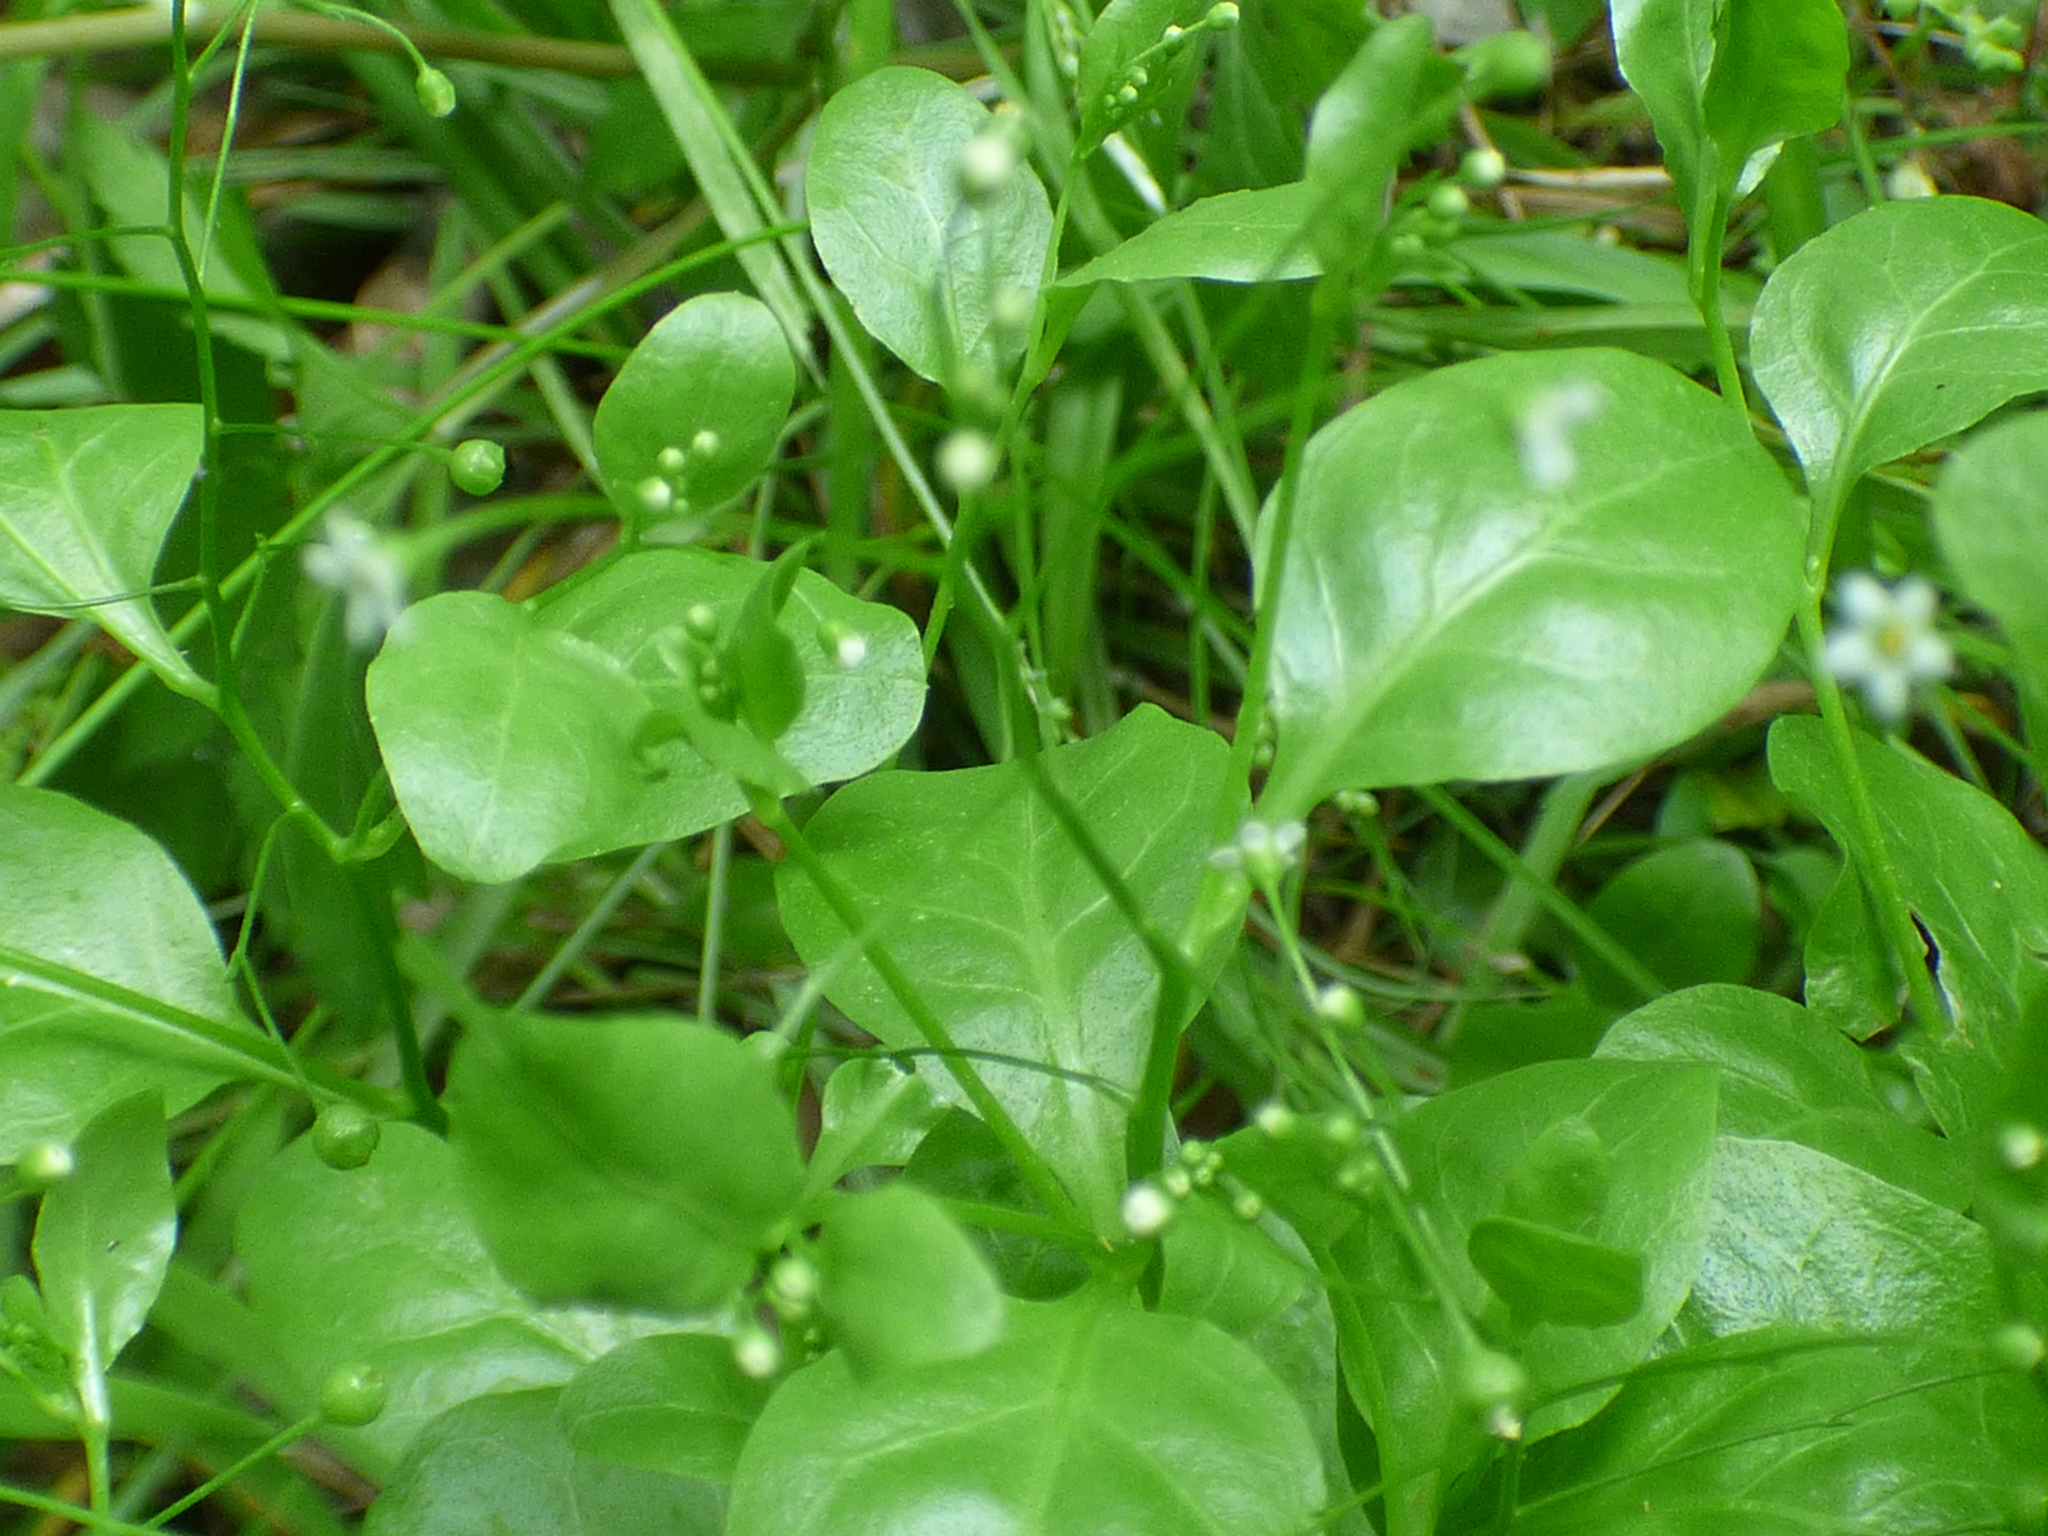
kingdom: Plantae
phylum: Tracheophyta
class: Magnoliopsida
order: Ericales
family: Primulaceae
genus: Samolus
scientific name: Samolus parviflorus
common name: False water pimpernel
